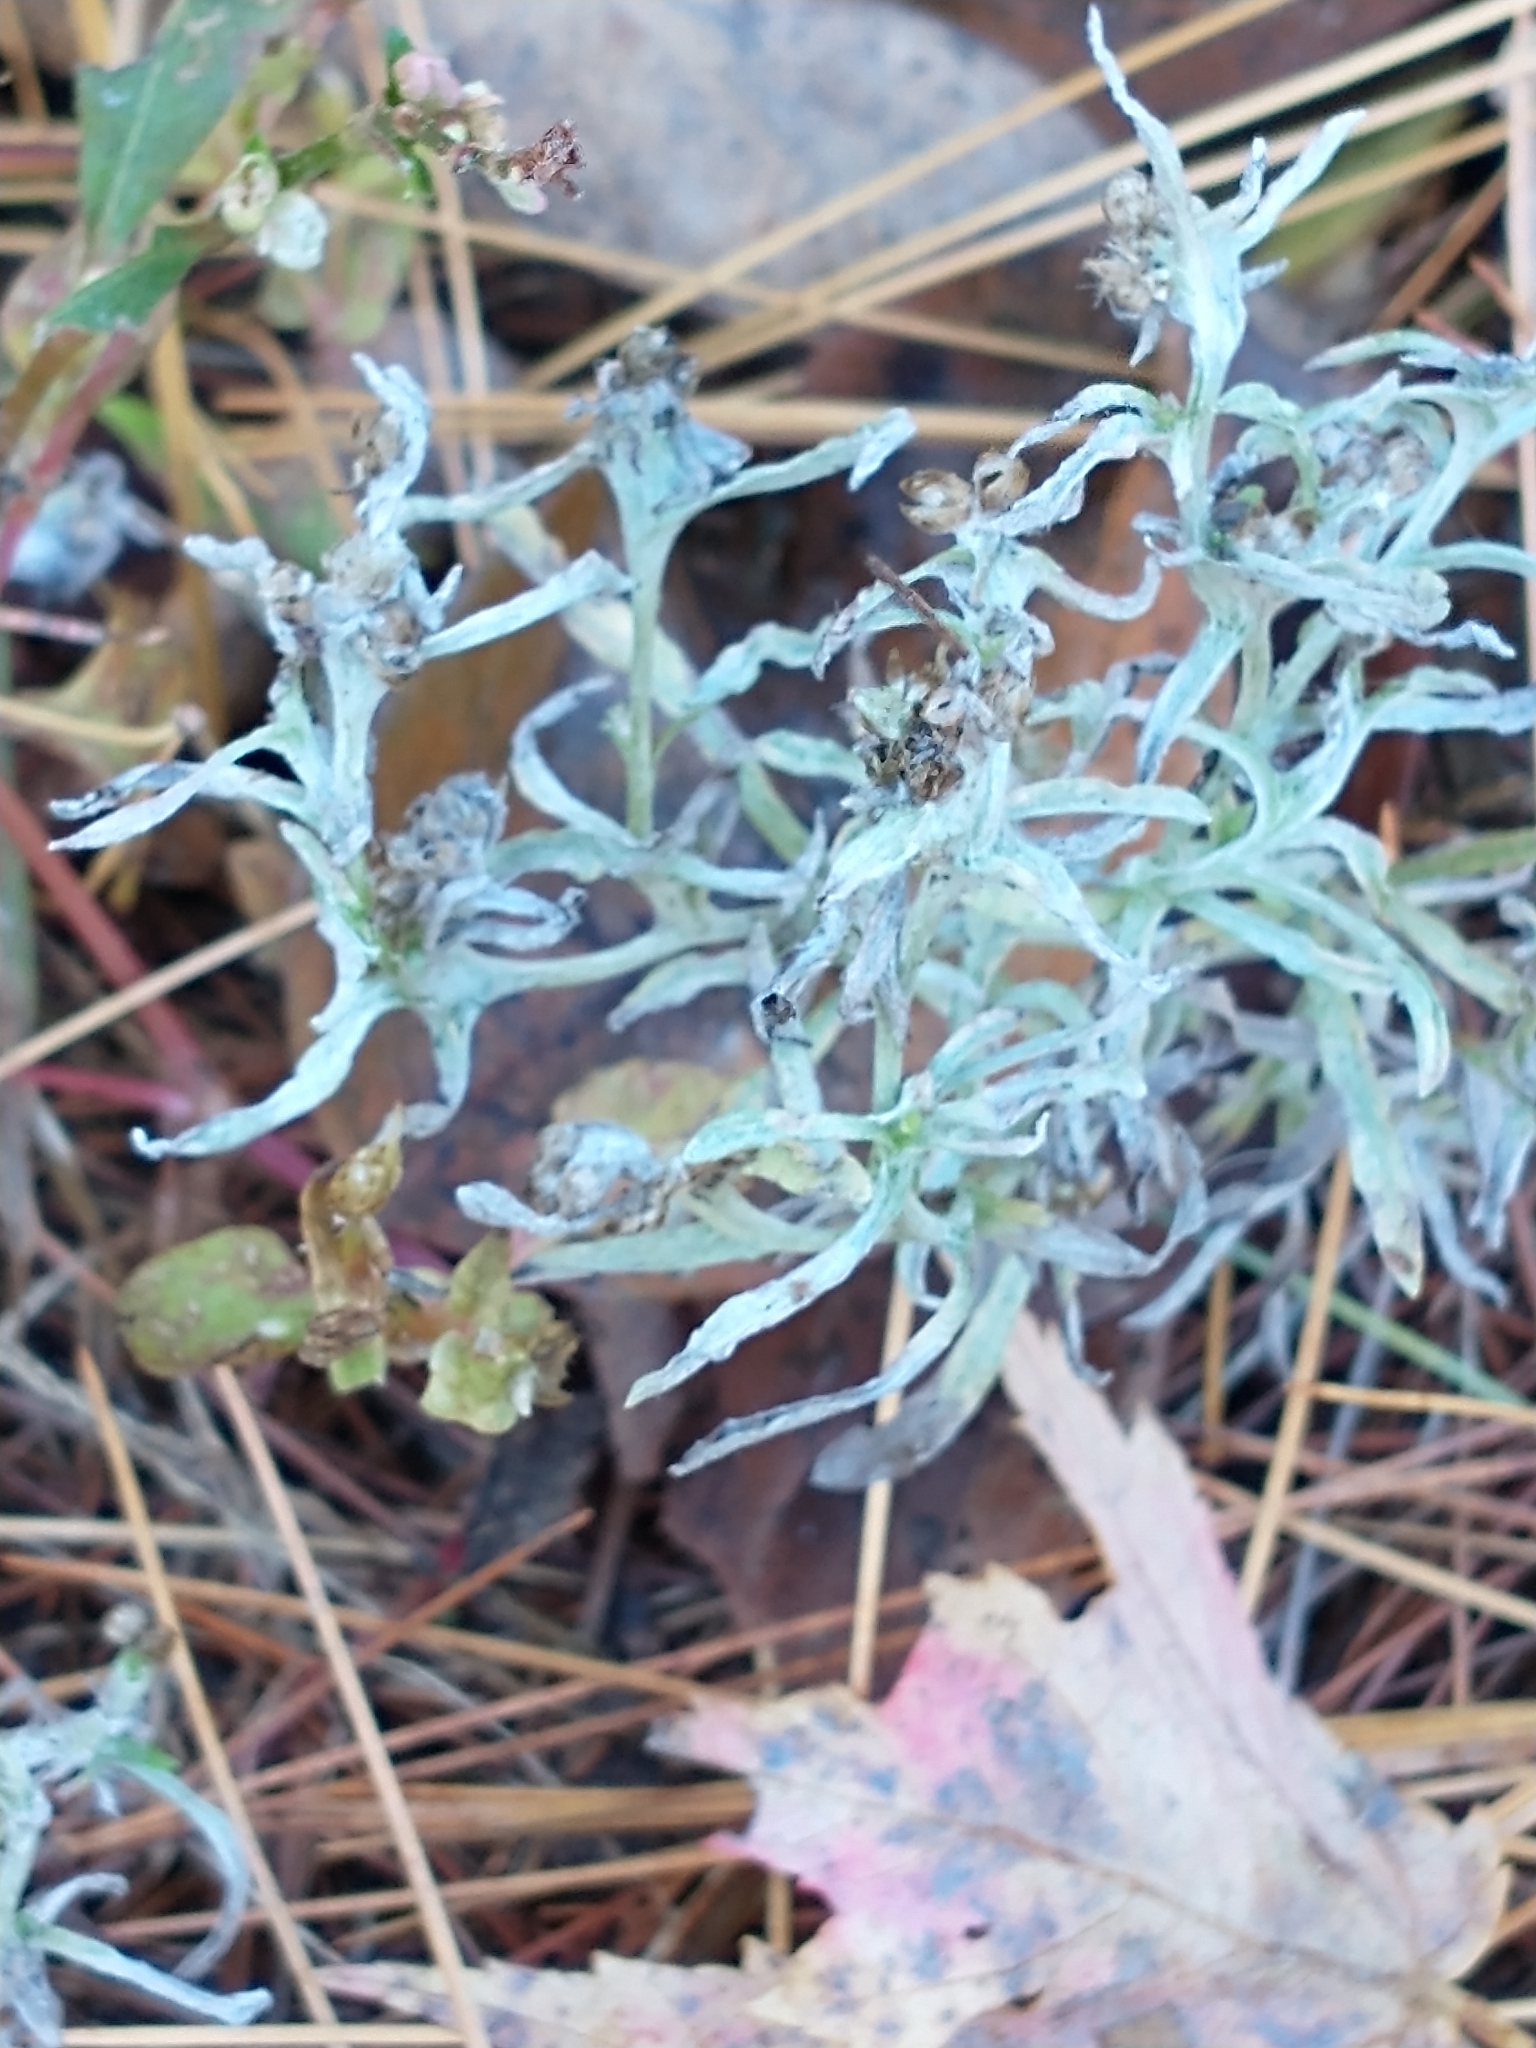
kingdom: Plantae
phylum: Tracheophyta
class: Magnoliopsida
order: Asterales
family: Asteraceae
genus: Gnaphalium
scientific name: Gnaphalium uliginosum
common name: Marsh cudweed
